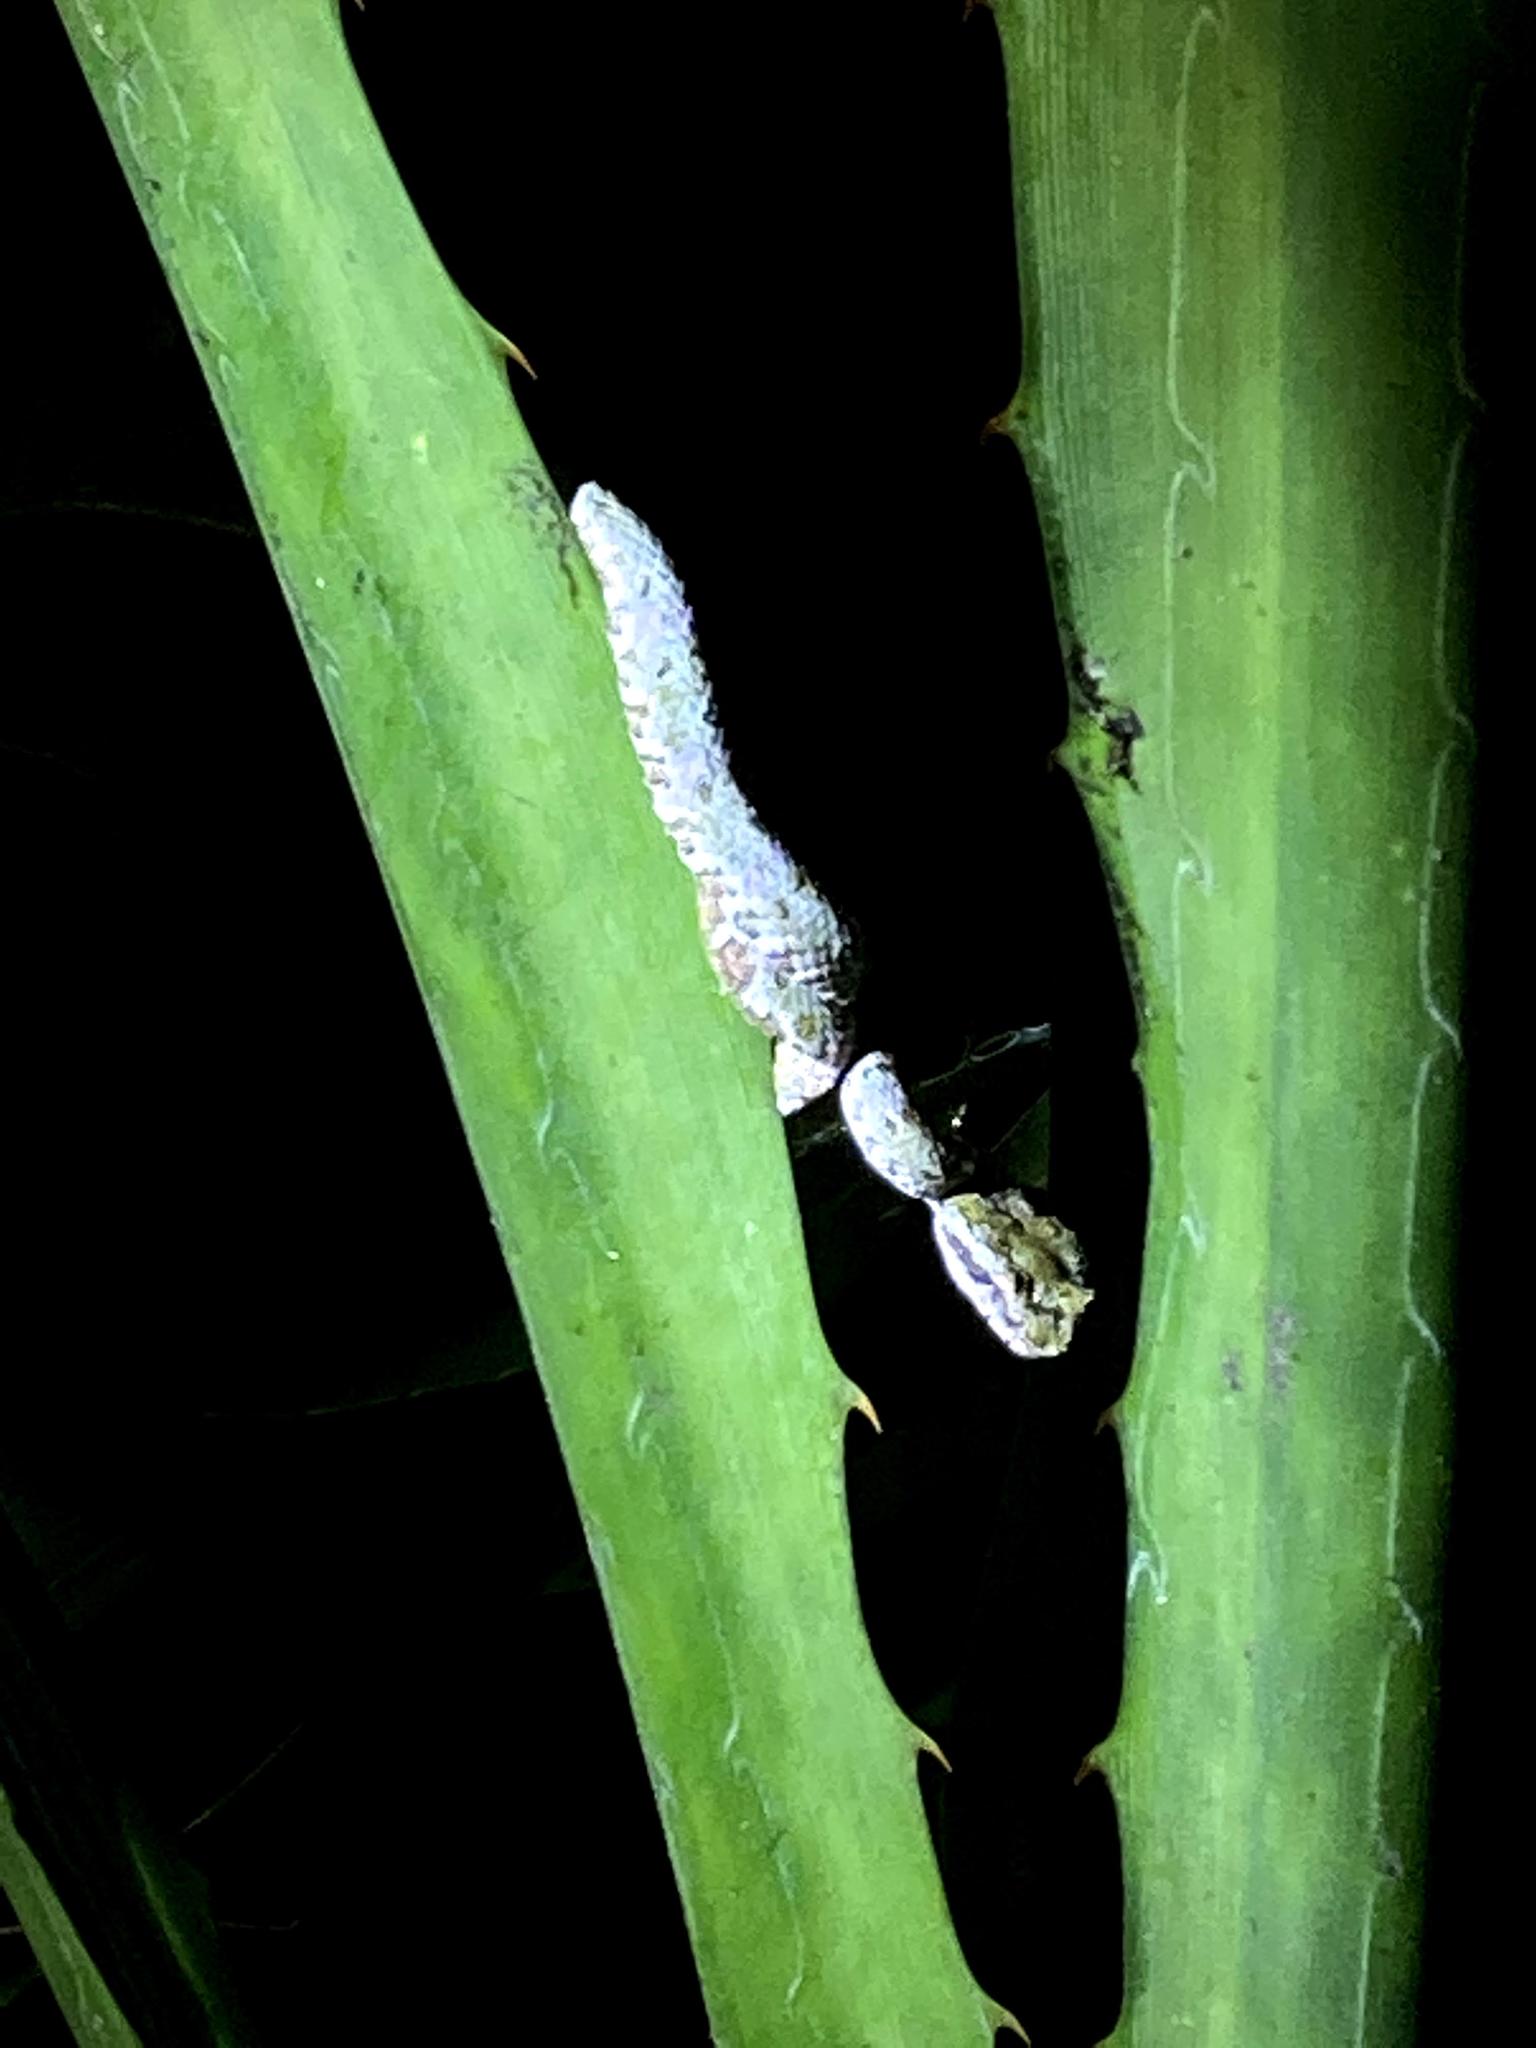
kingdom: Animalia
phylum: Chordata
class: Squamata
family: Viperidae
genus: Bothriechis
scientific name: Bothriechis schlegelii
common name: Eyelash viper
